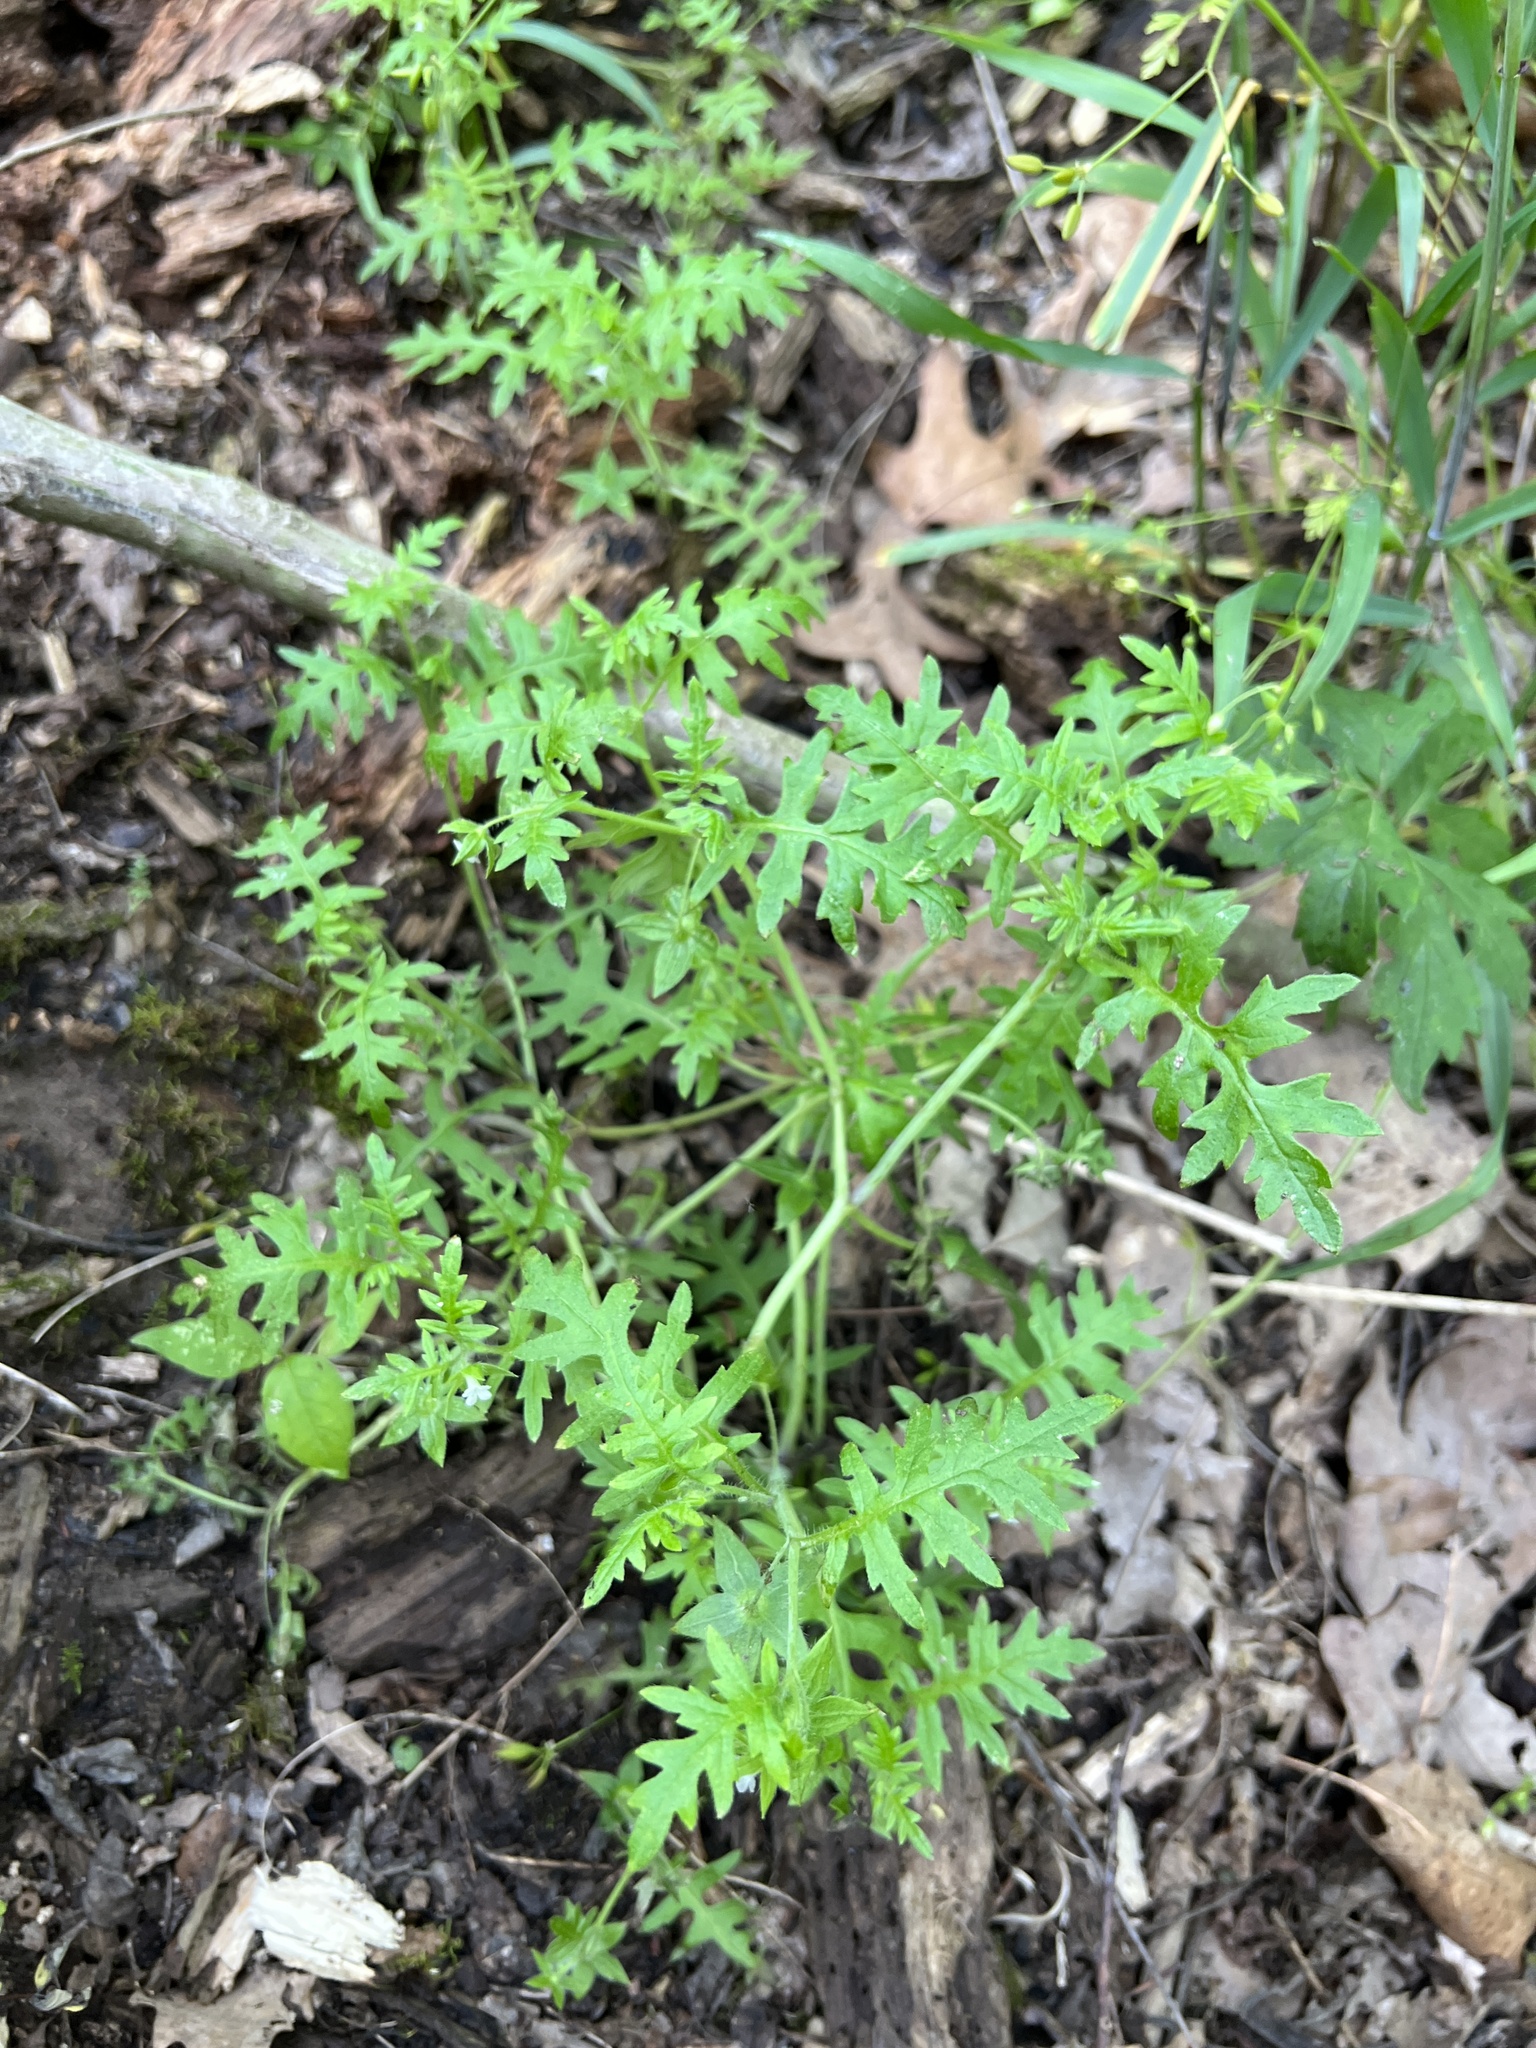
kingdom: Plantae
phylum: Tracheophyta
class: Magnoliopsida
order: Boraginales
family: Hydrophyllaceae
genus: Ellisia
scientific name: Ellisia nyctelea
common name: Aunt lucy
